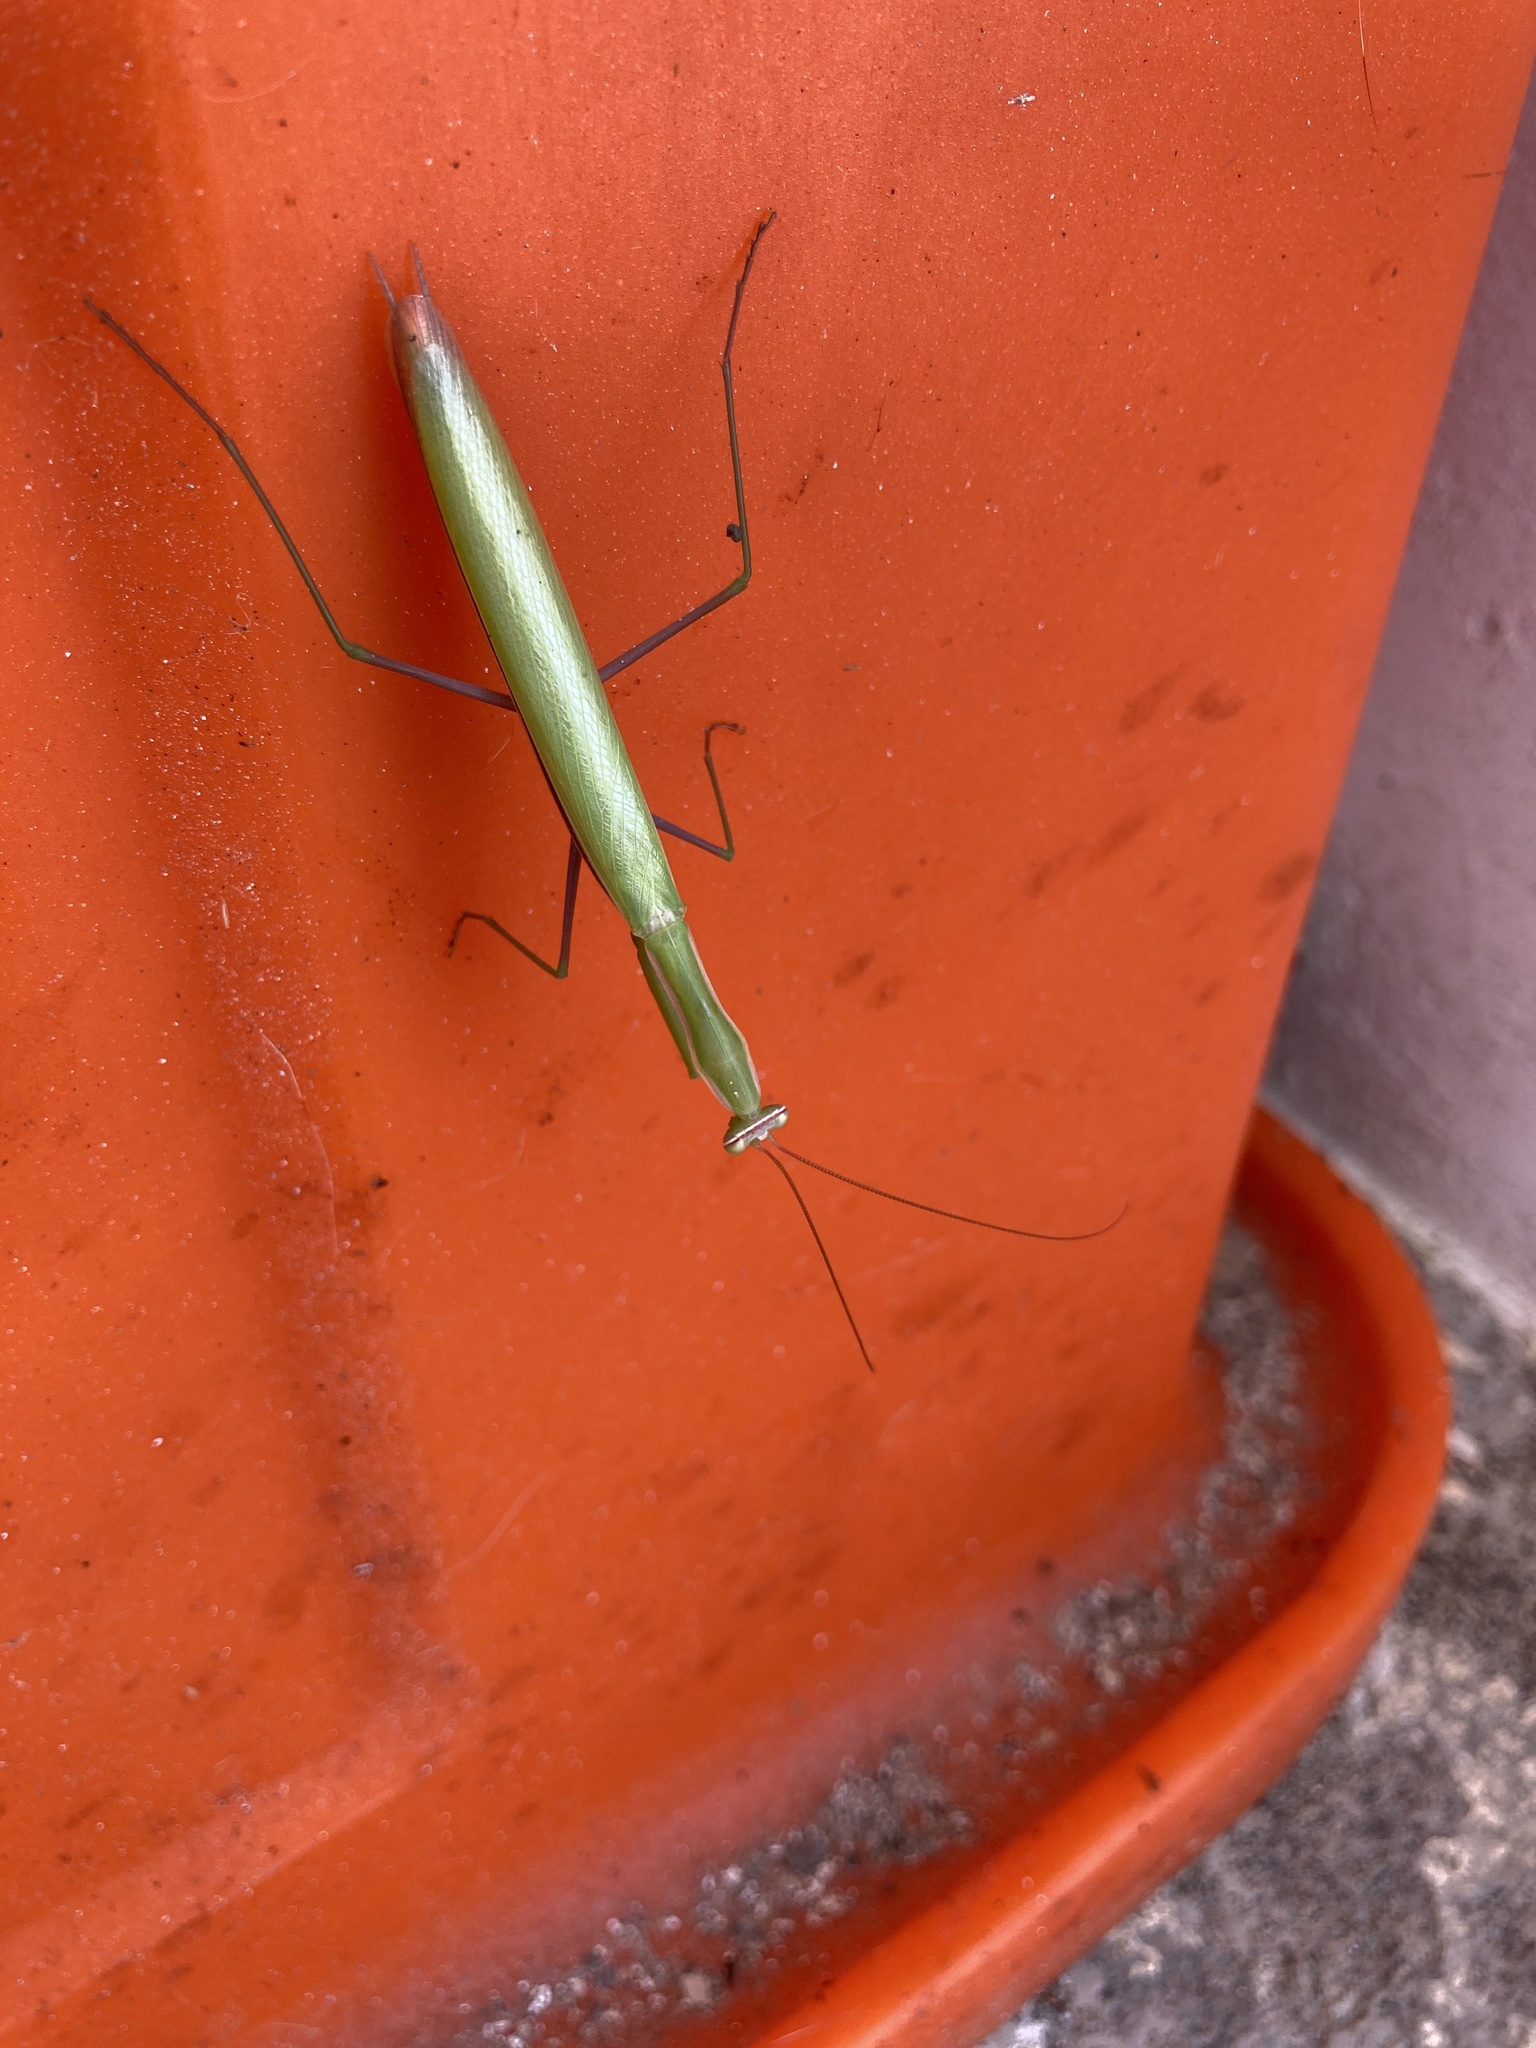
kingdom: Animalia
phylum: Arthropoda
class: Insecta
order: Mantodea
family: Mantidae
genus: Mantis
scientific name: Mantis religiosa
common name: Praying mantis
